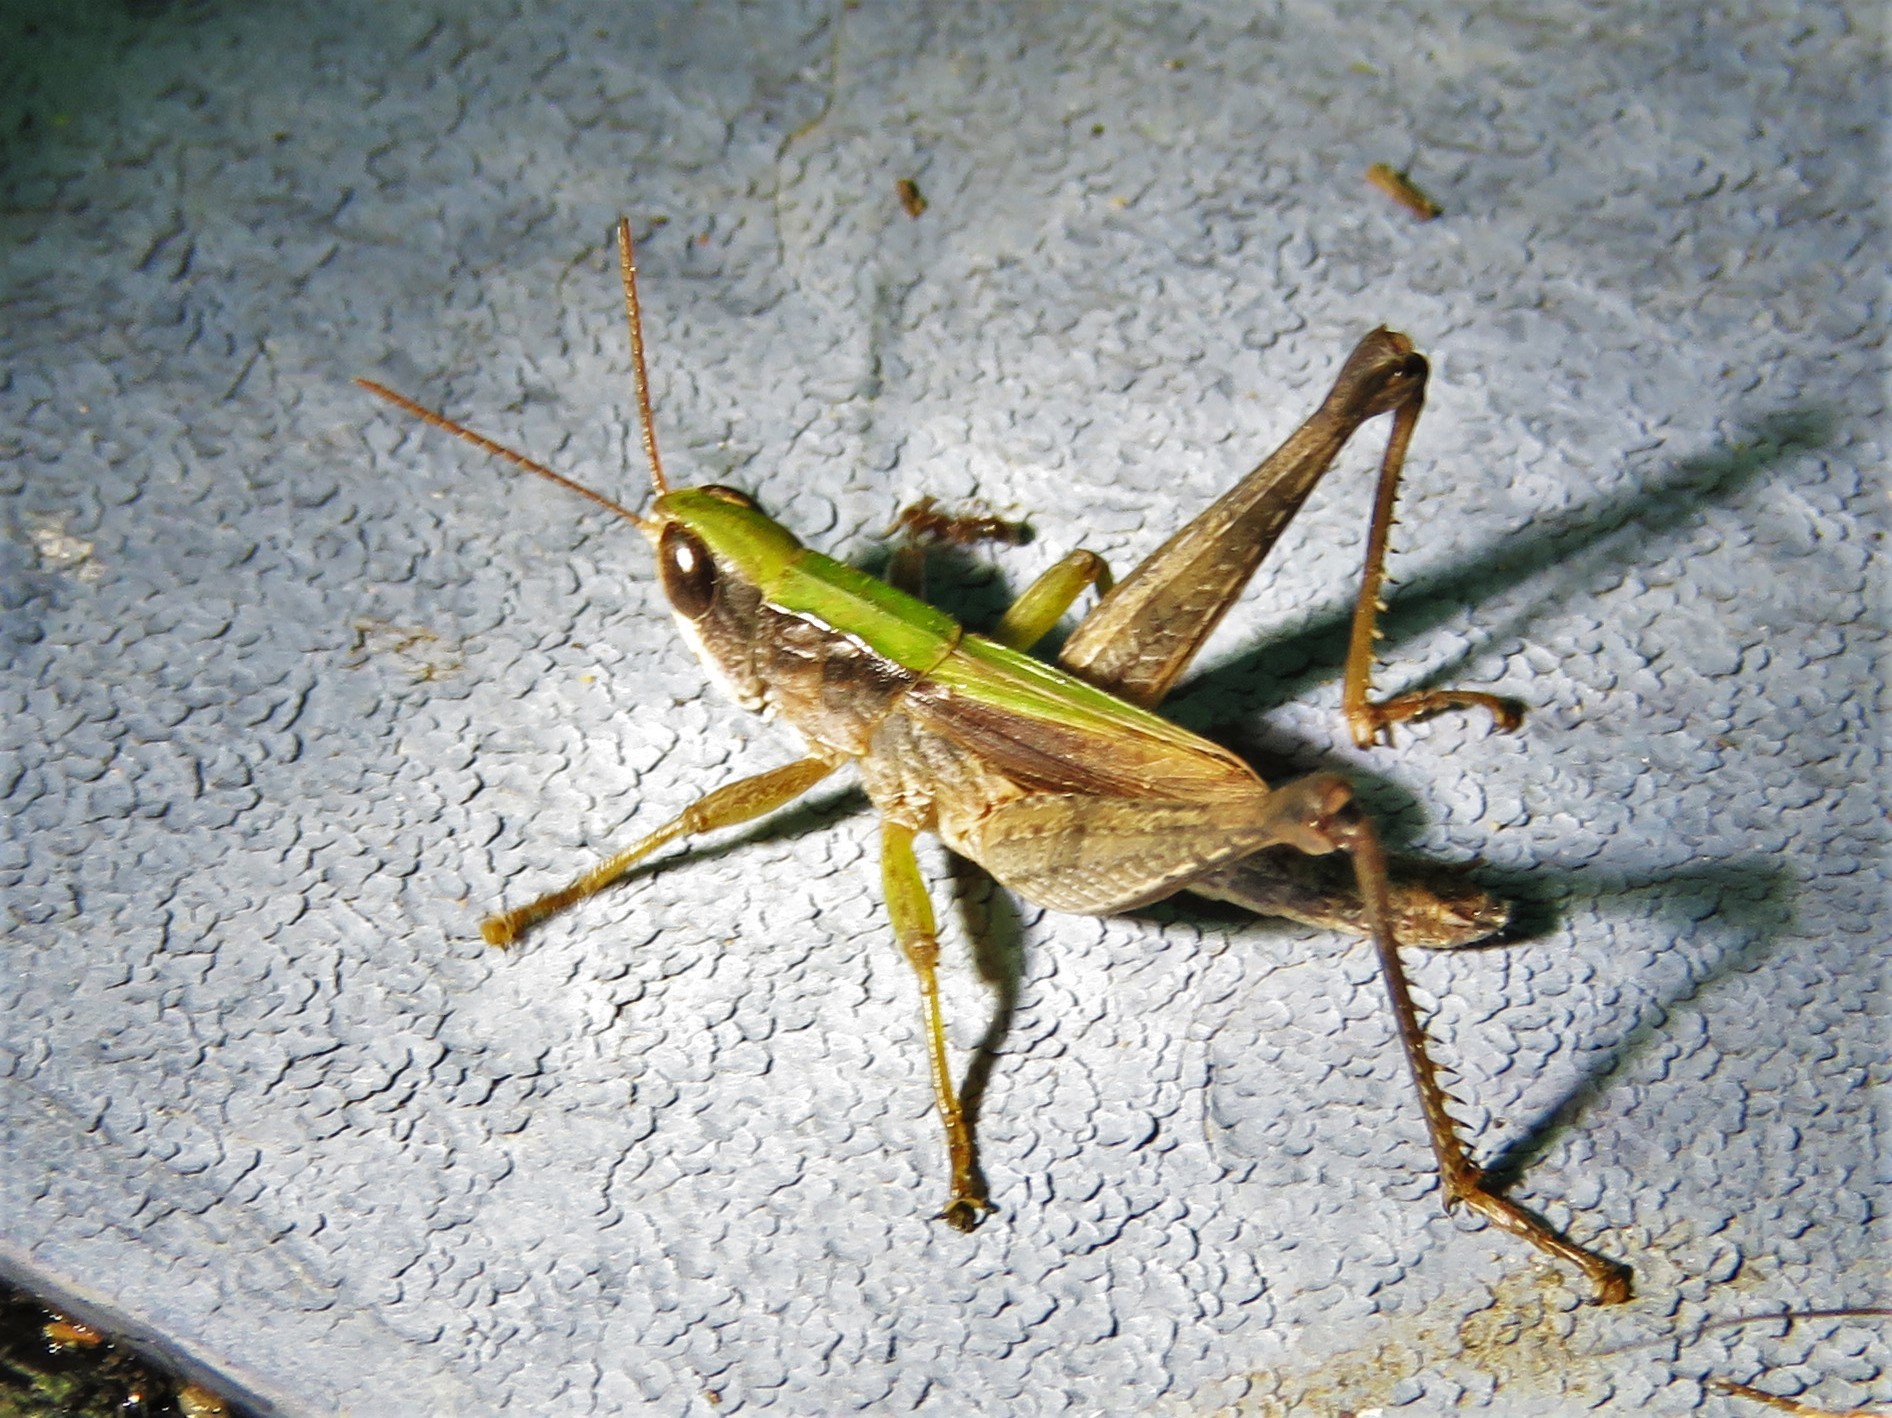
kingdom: Animalia
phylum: Arthropoda
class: Insecta
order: Orthoptera
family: Acrididae
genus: Dichromorpha
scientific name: Dichromorpha viridis
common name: Short-winged green grasshopper
